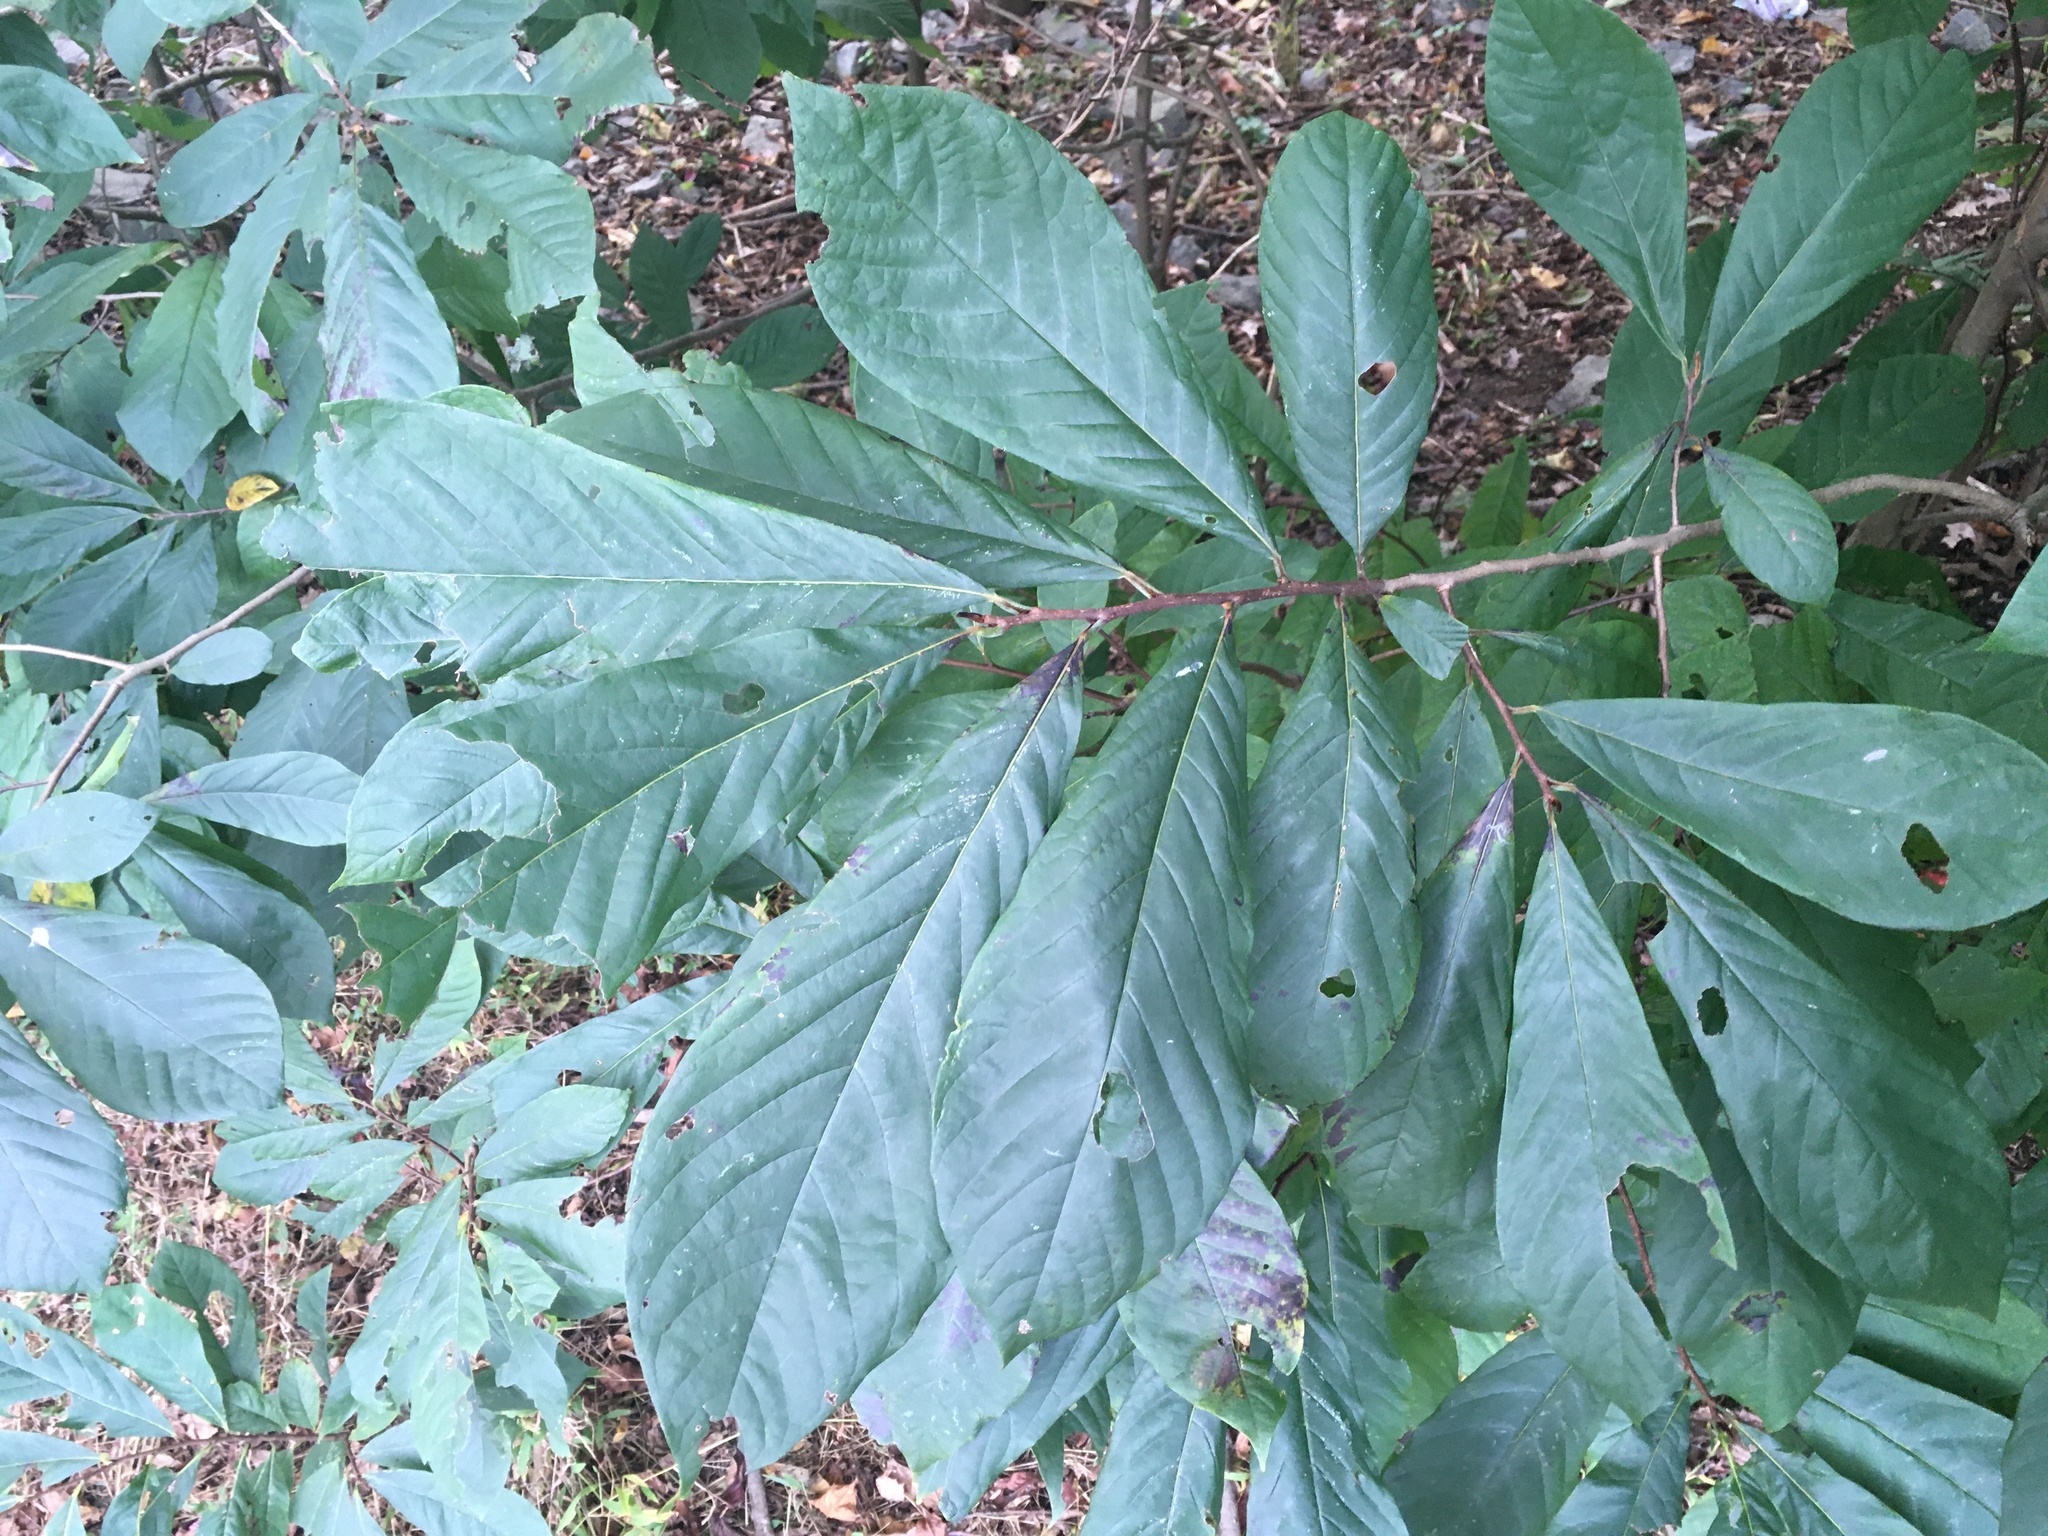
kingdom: Plantae
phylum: Tracheophyta
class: Magnoliopsida
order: Magnoliales
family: Annonaceae
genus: Asimina
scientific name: Asimina triloba
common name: Dog-banana
